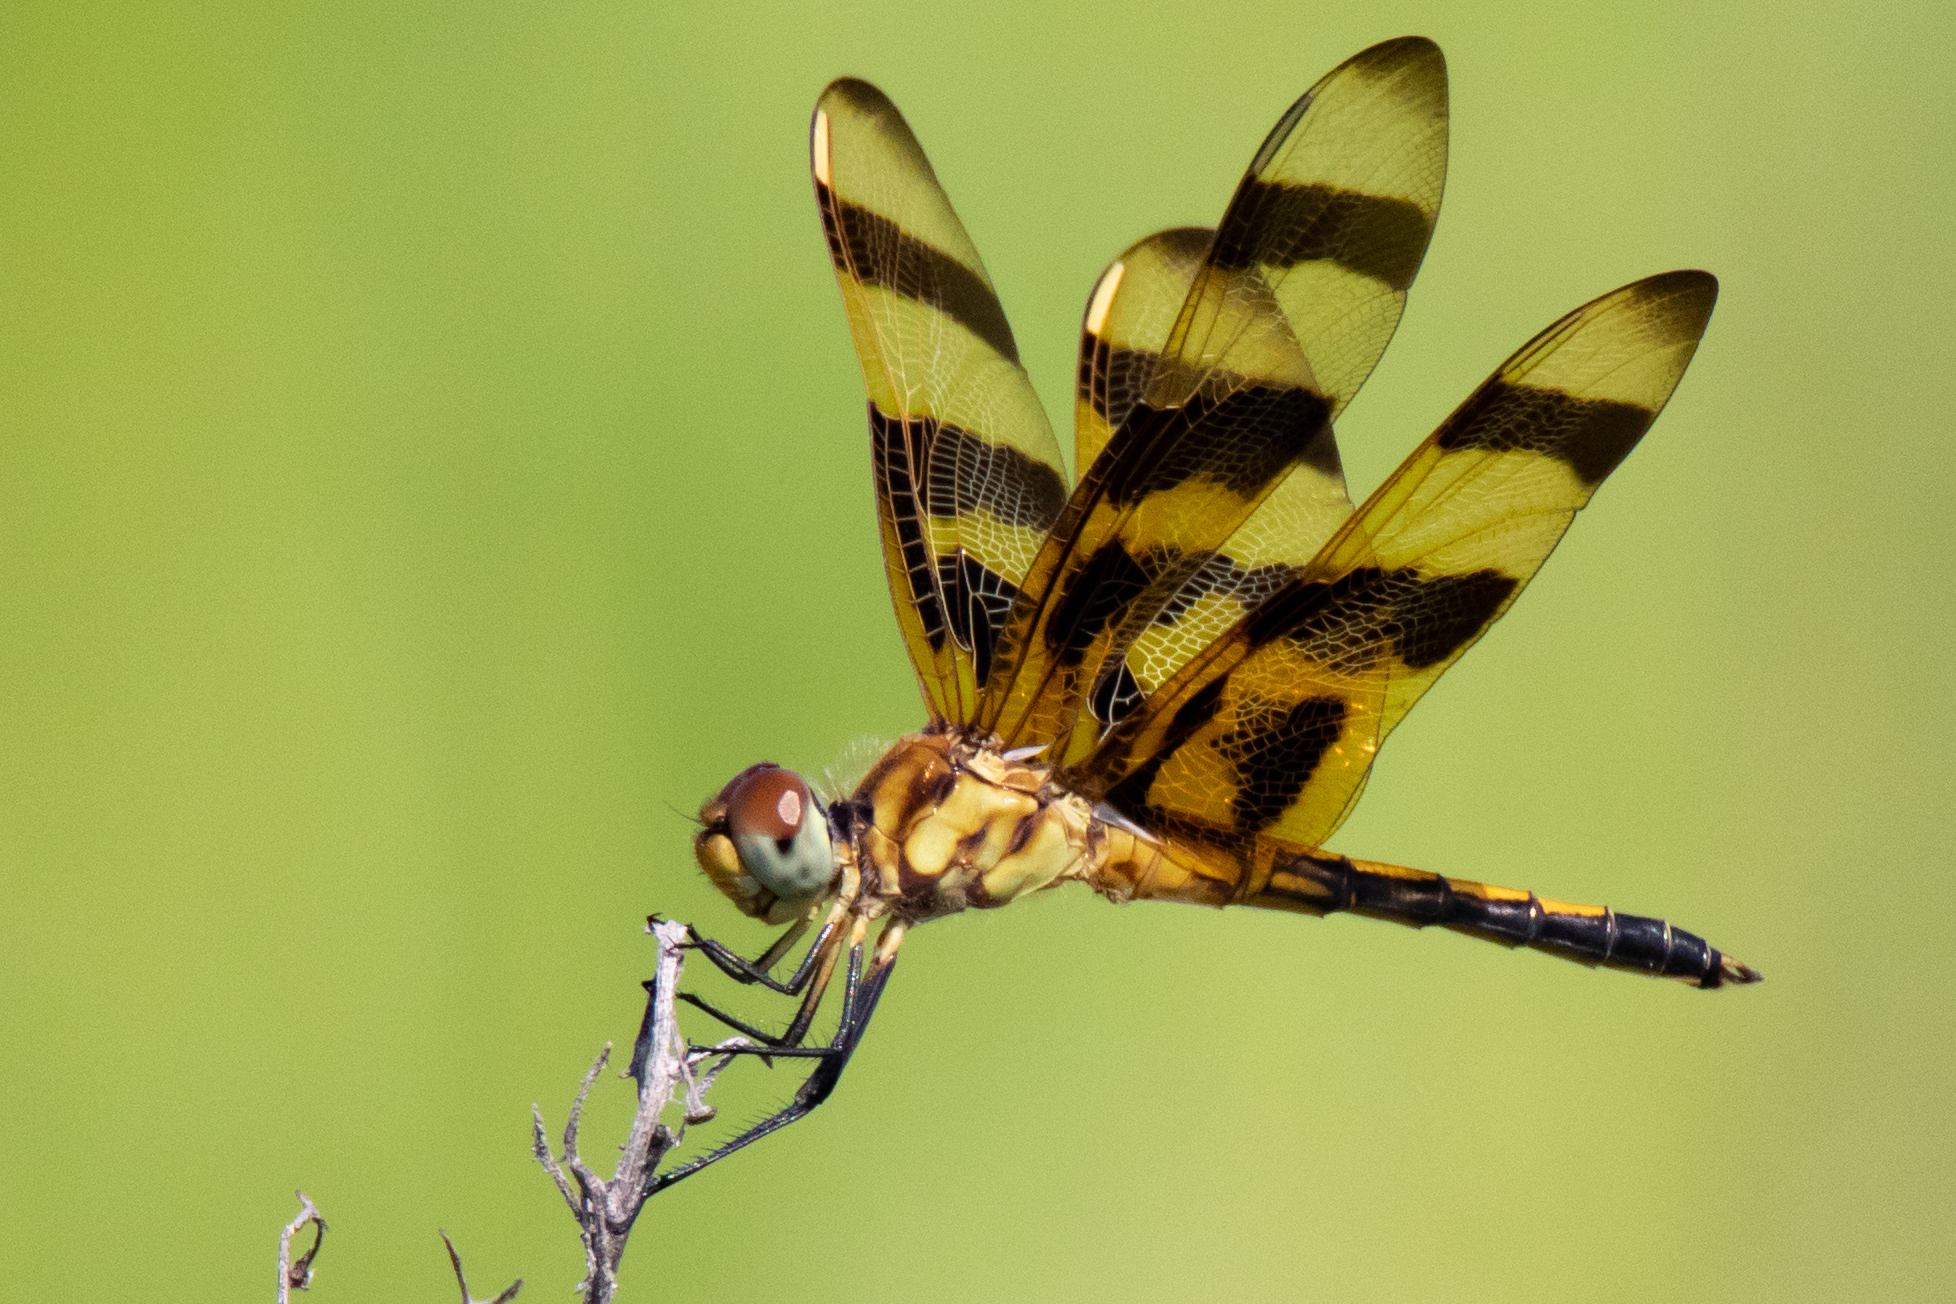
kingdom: Animalia
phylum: Arthropoda
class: Insecta
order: Odonata
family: Libellulidae
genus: Celithemis
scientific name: Celithemis eponina
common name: Halloween pennant
